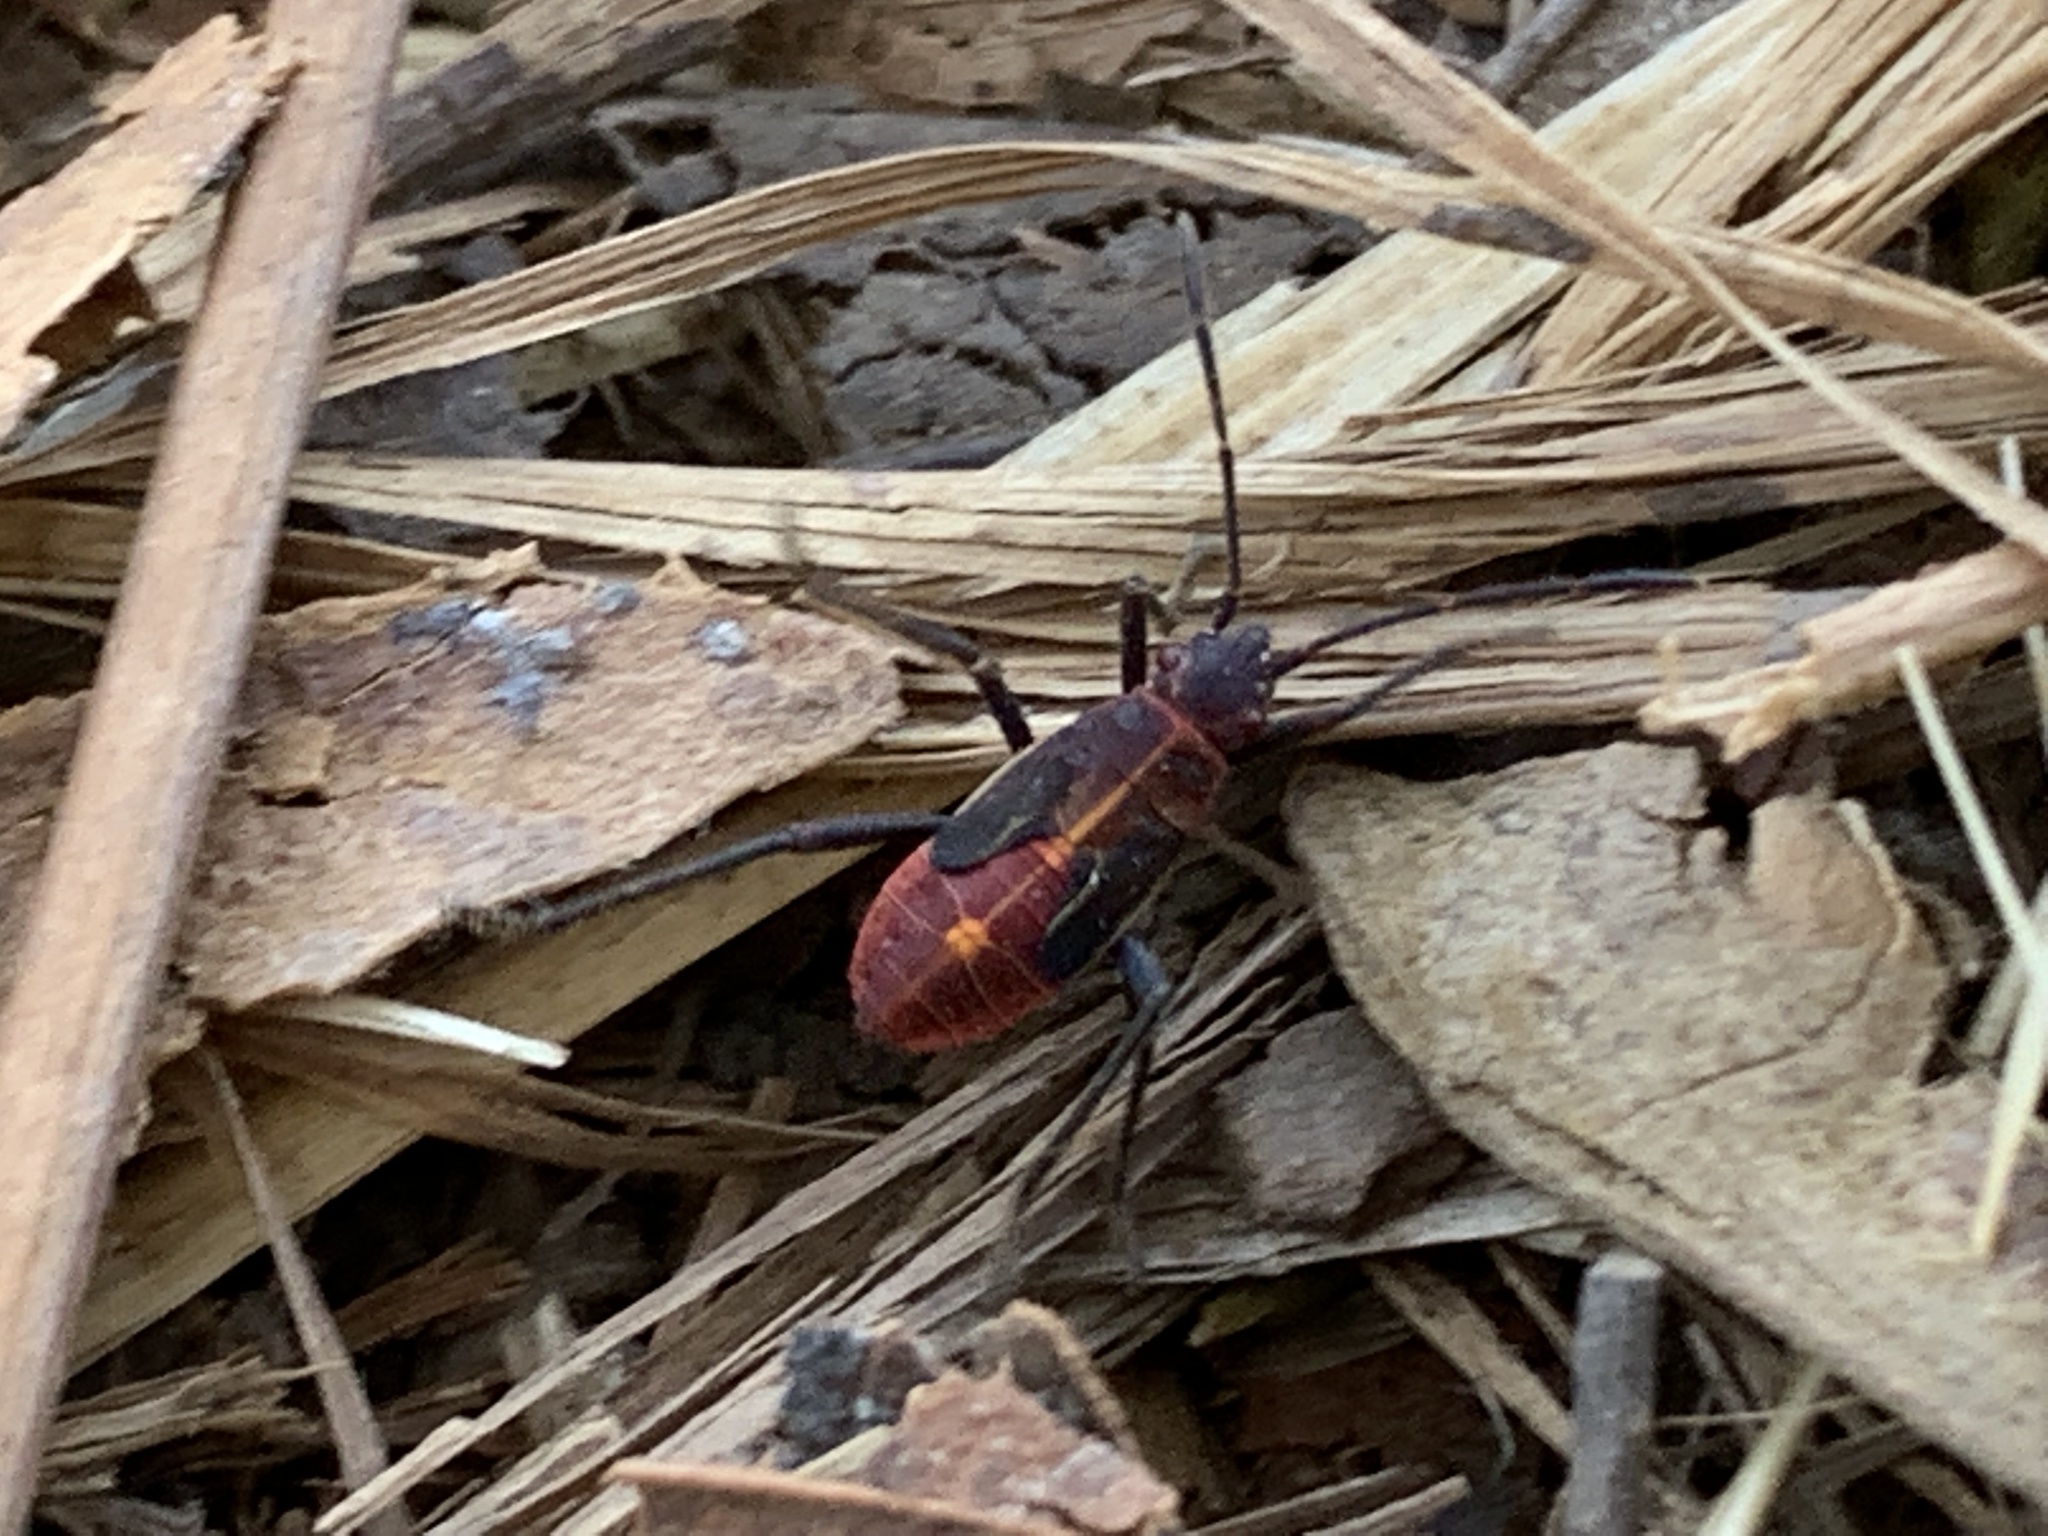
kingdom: Animalia
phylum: Arthropoda
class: Insecta
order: Hemiptera
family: Rhopalidae
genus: Boisea
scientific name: Boisea rubrolineata
